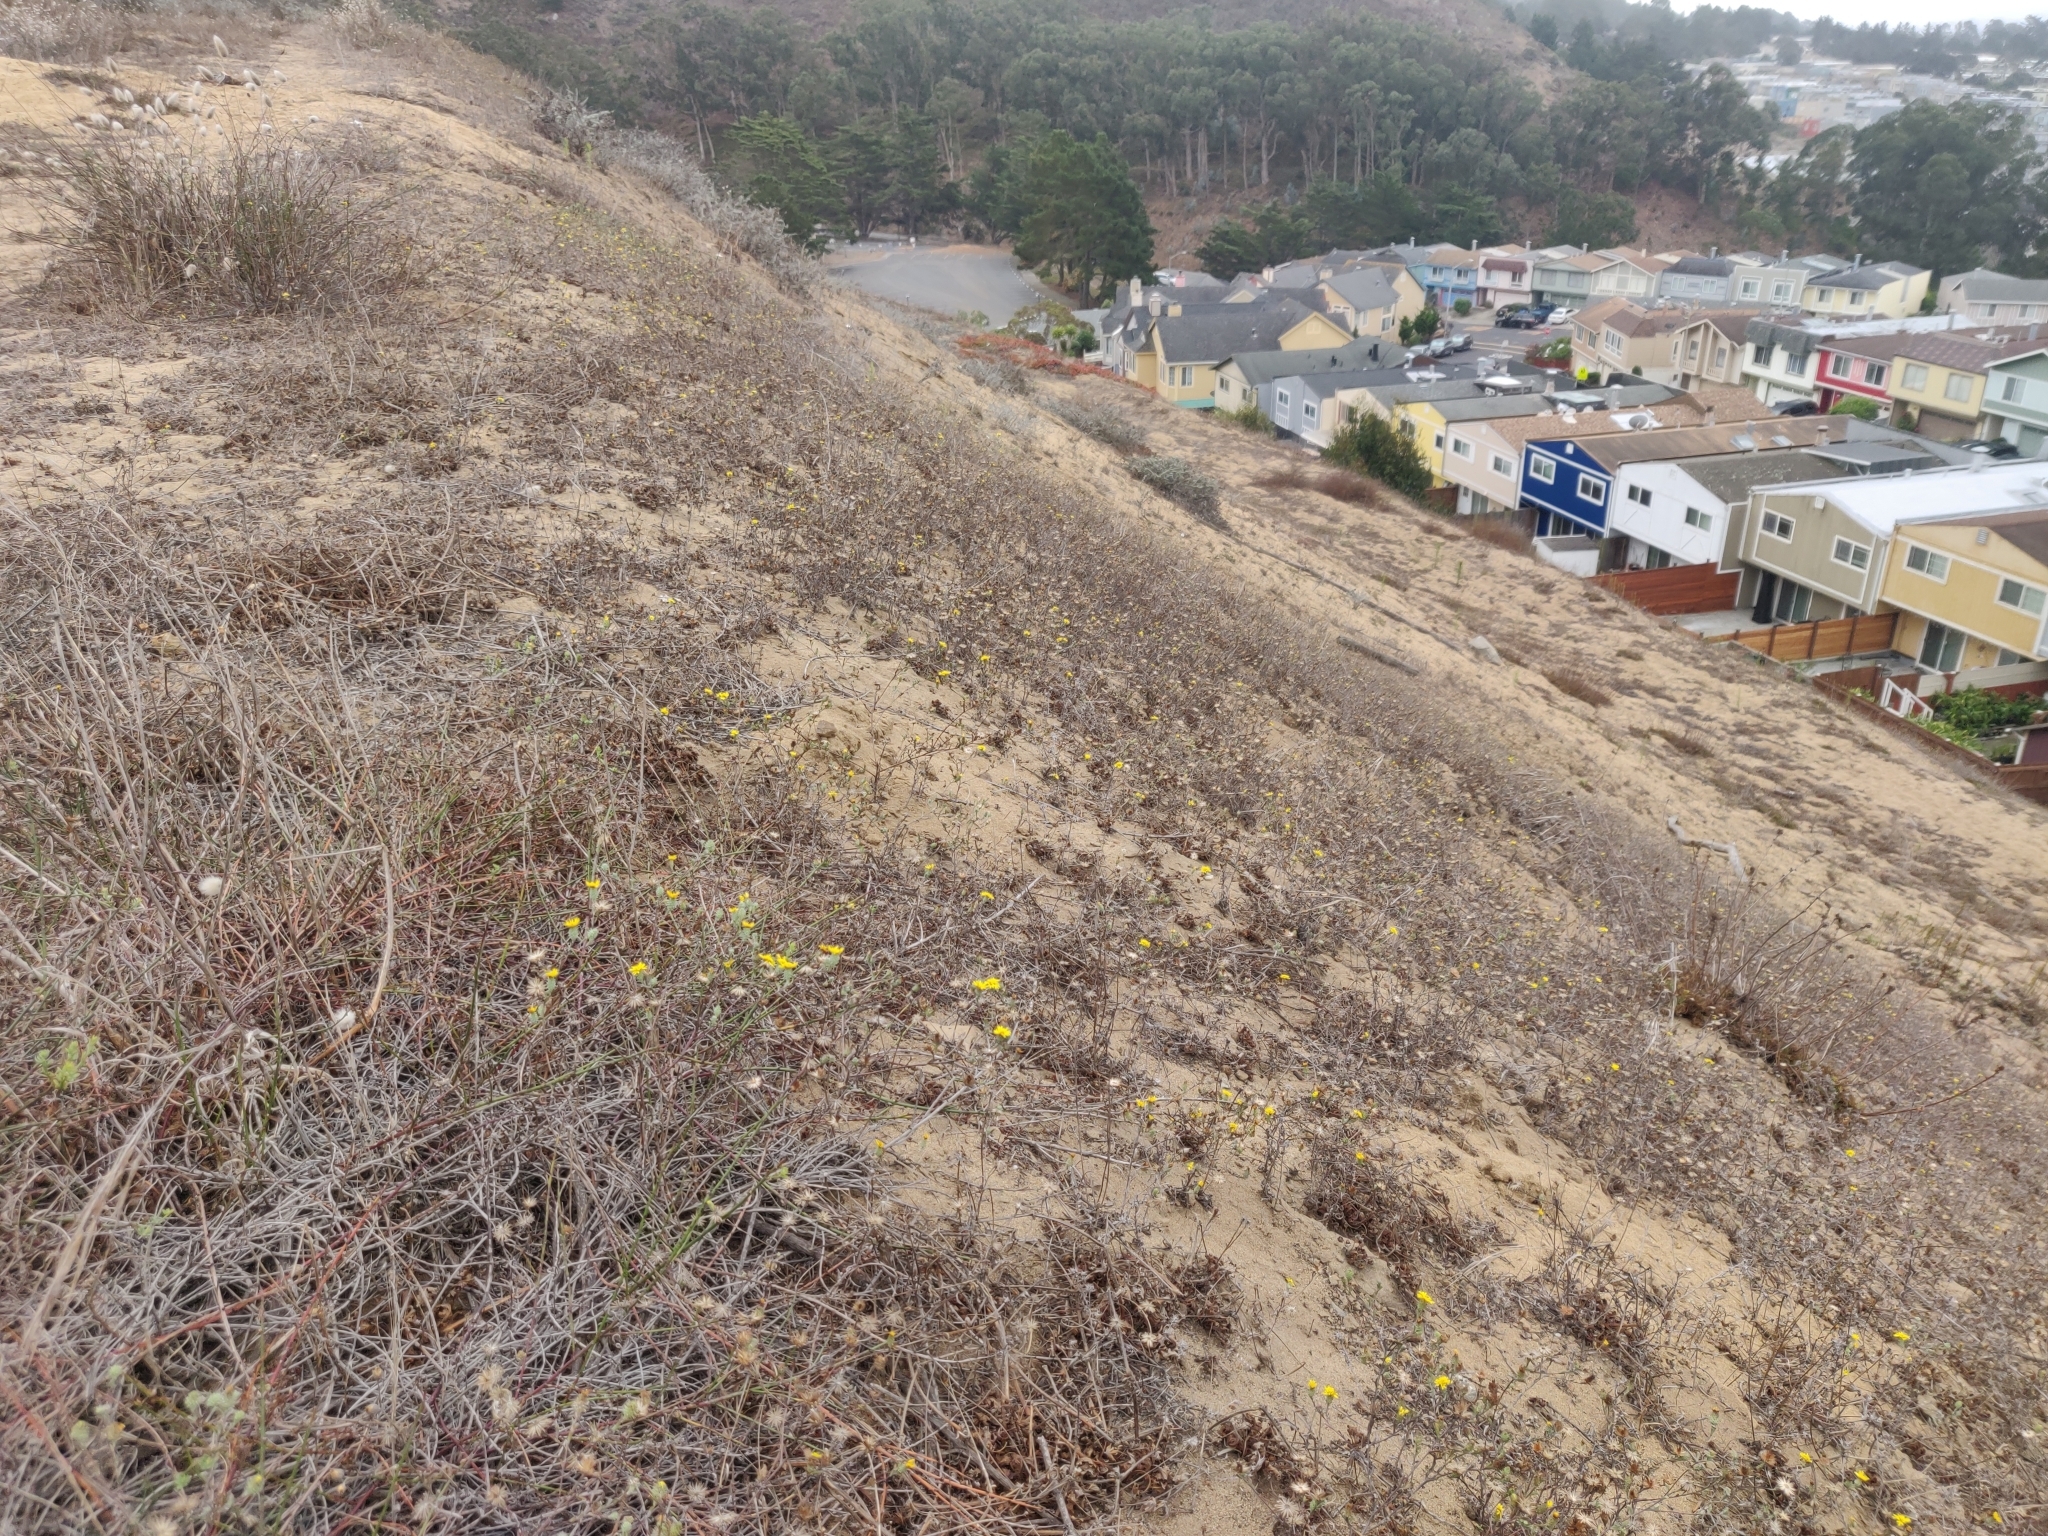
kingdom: Plantae
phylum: Tracheophyta
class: Magnoliopsida
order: Asterales
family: Asteraceae
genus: Lessingia
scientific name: Lessingia germanorum
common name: San francisco lessingia
